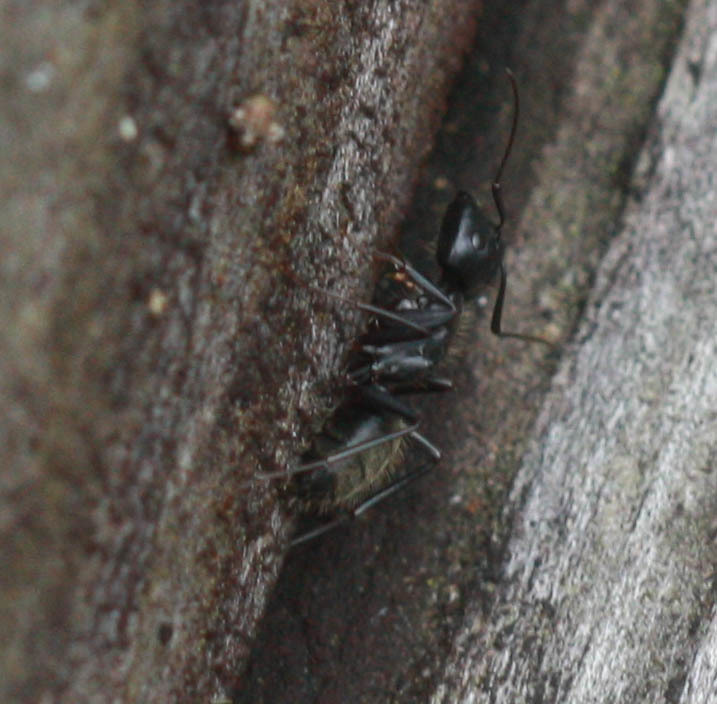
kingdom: Animalia
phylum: Arthropoda
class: Insecta
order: Hymenoptera
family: Formicidae
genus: Camponotus
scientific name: Camponotus pennsylvanicus
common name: Black carpenter ant
